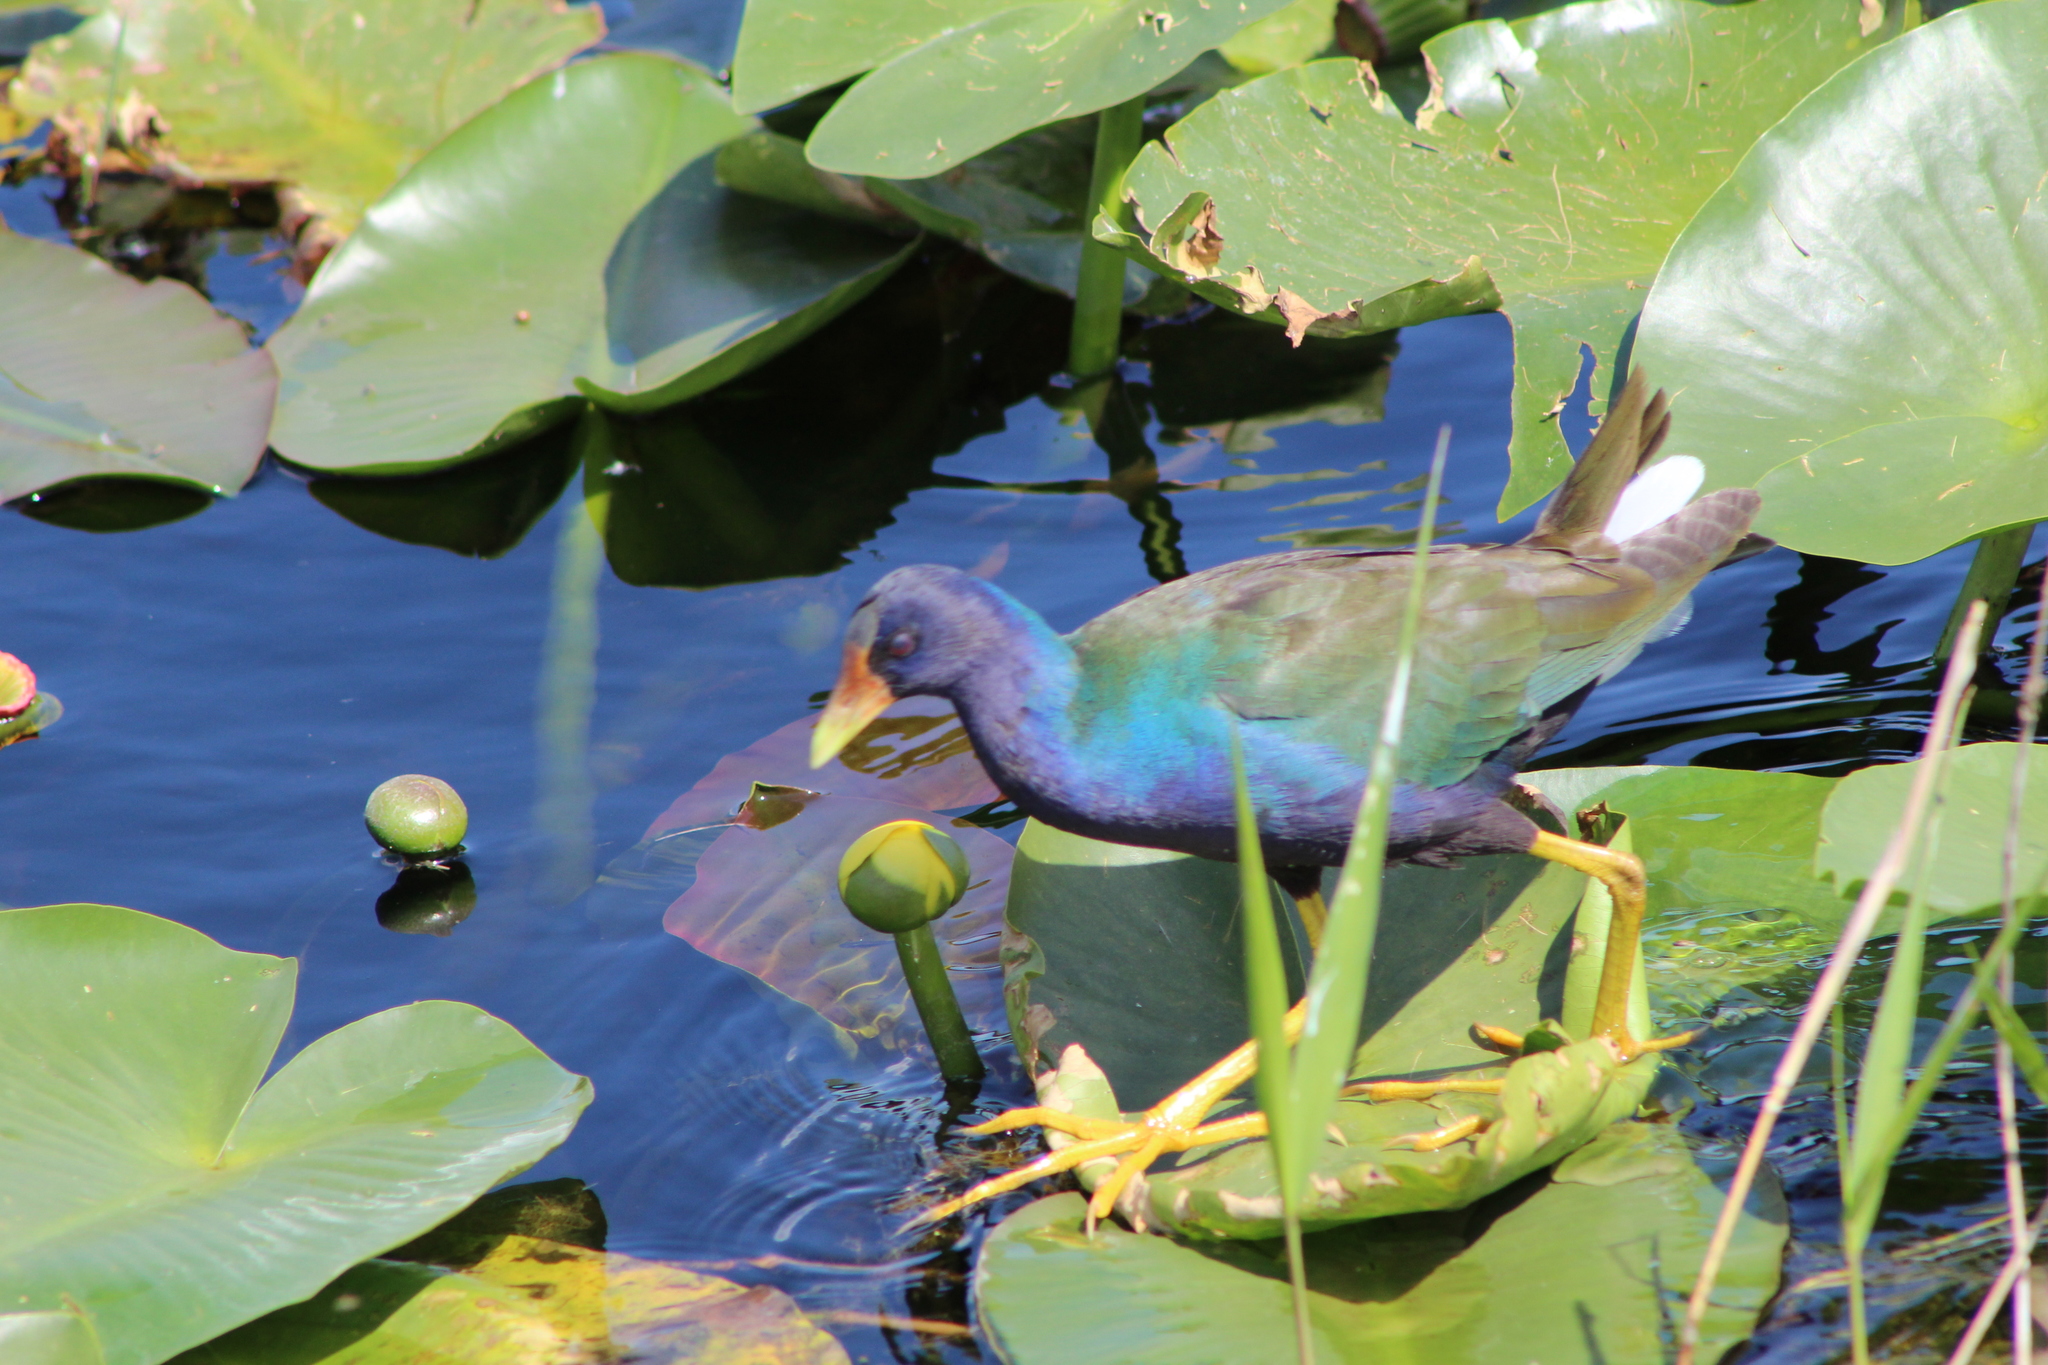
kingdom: Animalia
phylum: Chordata
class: Aves
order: Gruiformes
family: Rallidae
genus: Porphyrio
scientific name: Porphyrio martinica
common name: Purple gallinule
